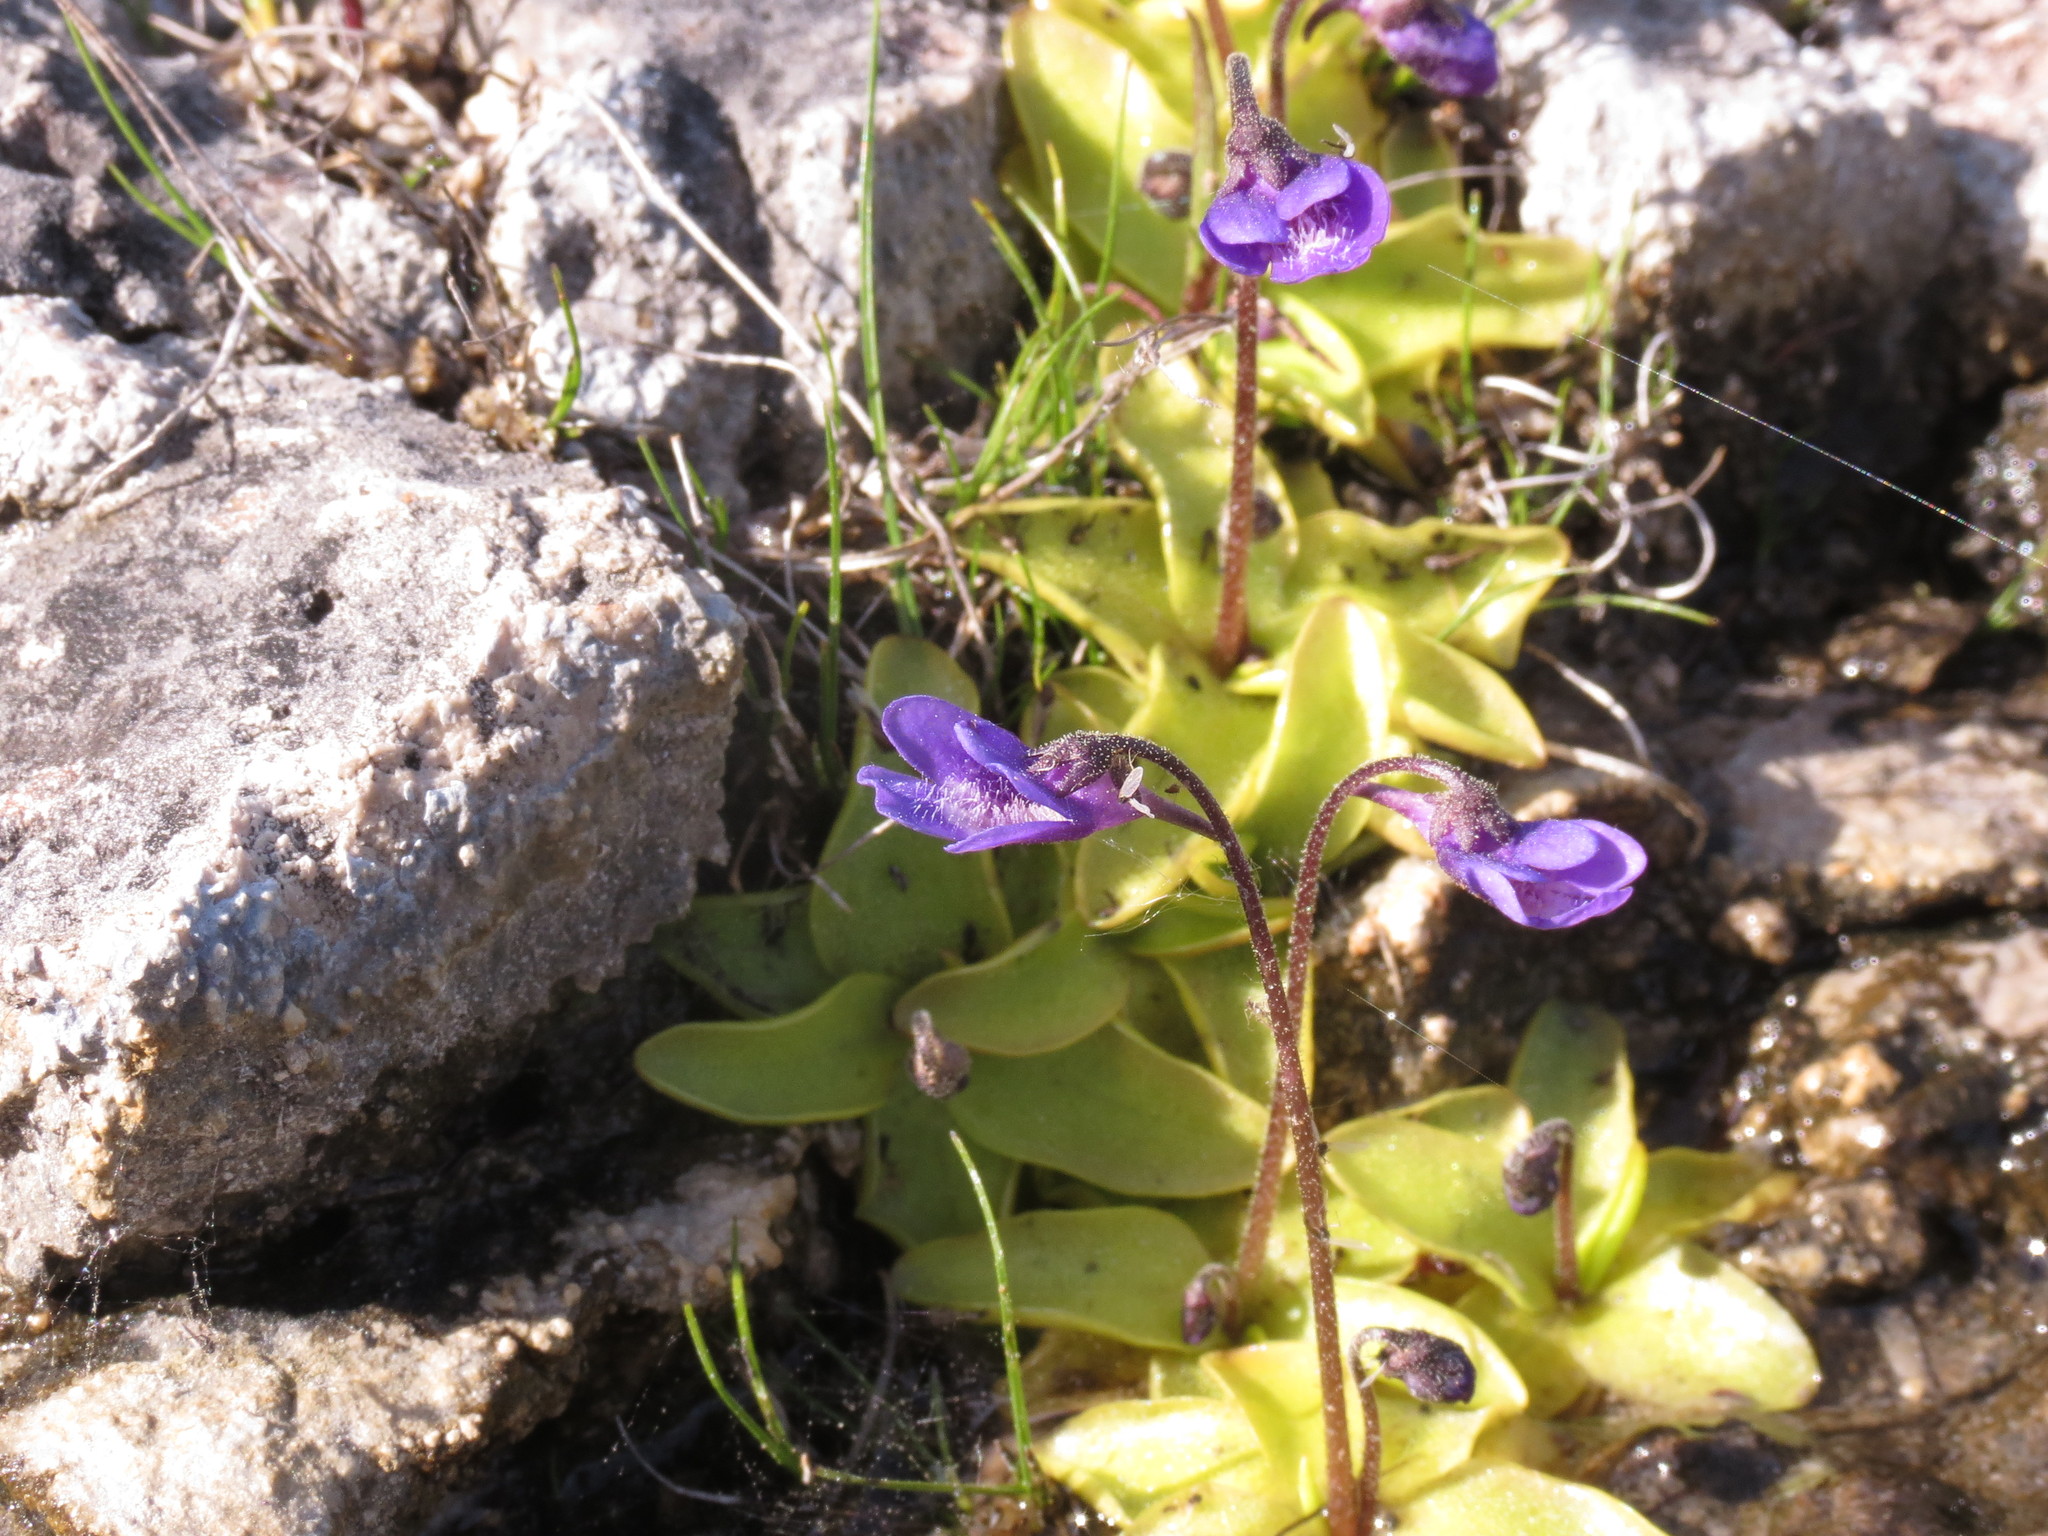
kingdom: Plantae
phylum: Tracheophyta
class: Magnoliopsida
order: Lamiales
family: Lentibulariaceae
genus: Pinguicula
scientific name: Pinguicula vulgaris
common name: Common butterwort
